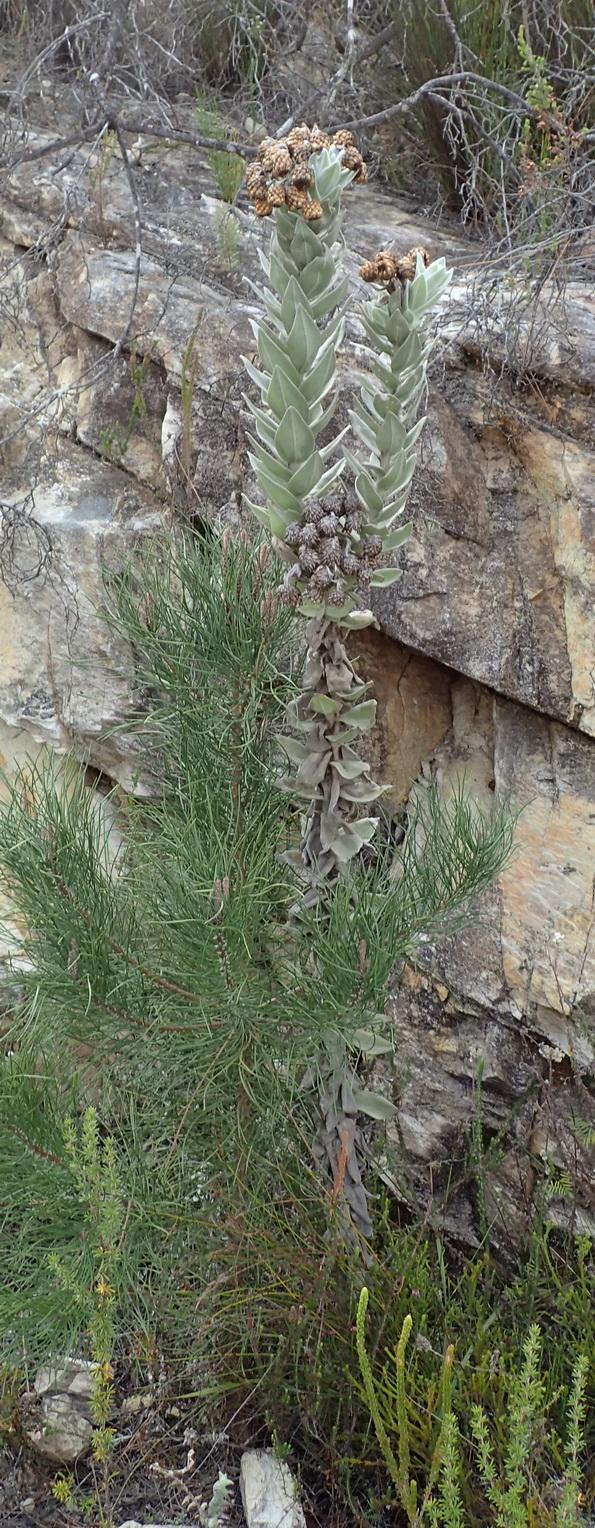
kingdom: Plantae
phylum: Tracheophyta
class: Magnoliopsida
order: Asterales
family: Asteraceae
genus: Syncarpha
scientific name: Syncarpha eximia
